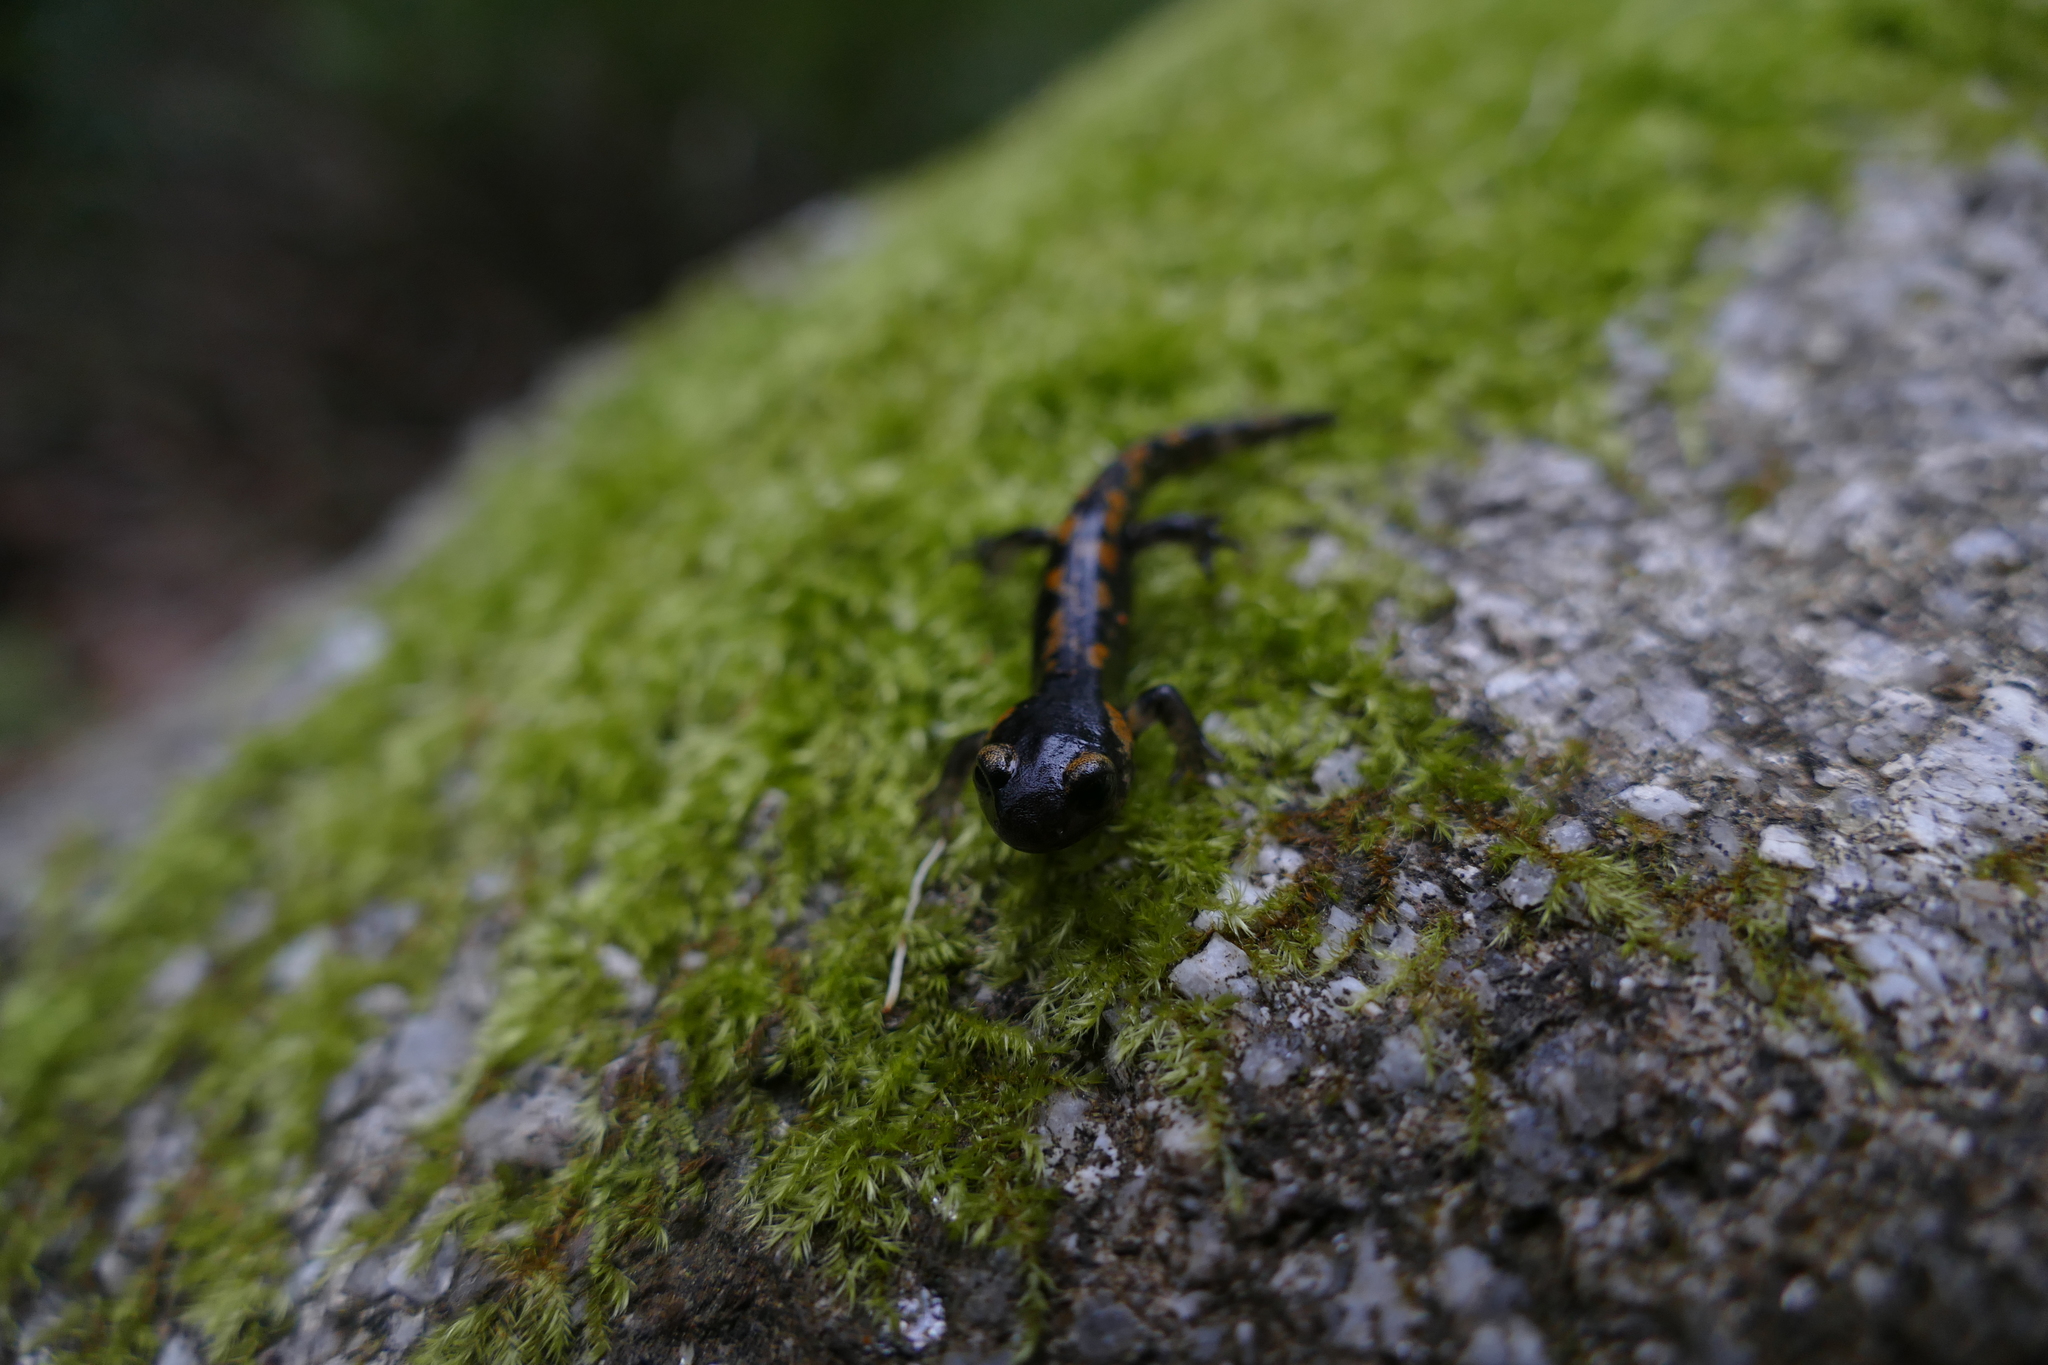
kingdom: Animalia
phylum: Chordata
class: Amphibia
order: Caudata
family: Salamandridae
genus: Salamandra
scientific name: Salamandra salamandra
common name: Fire salamander
